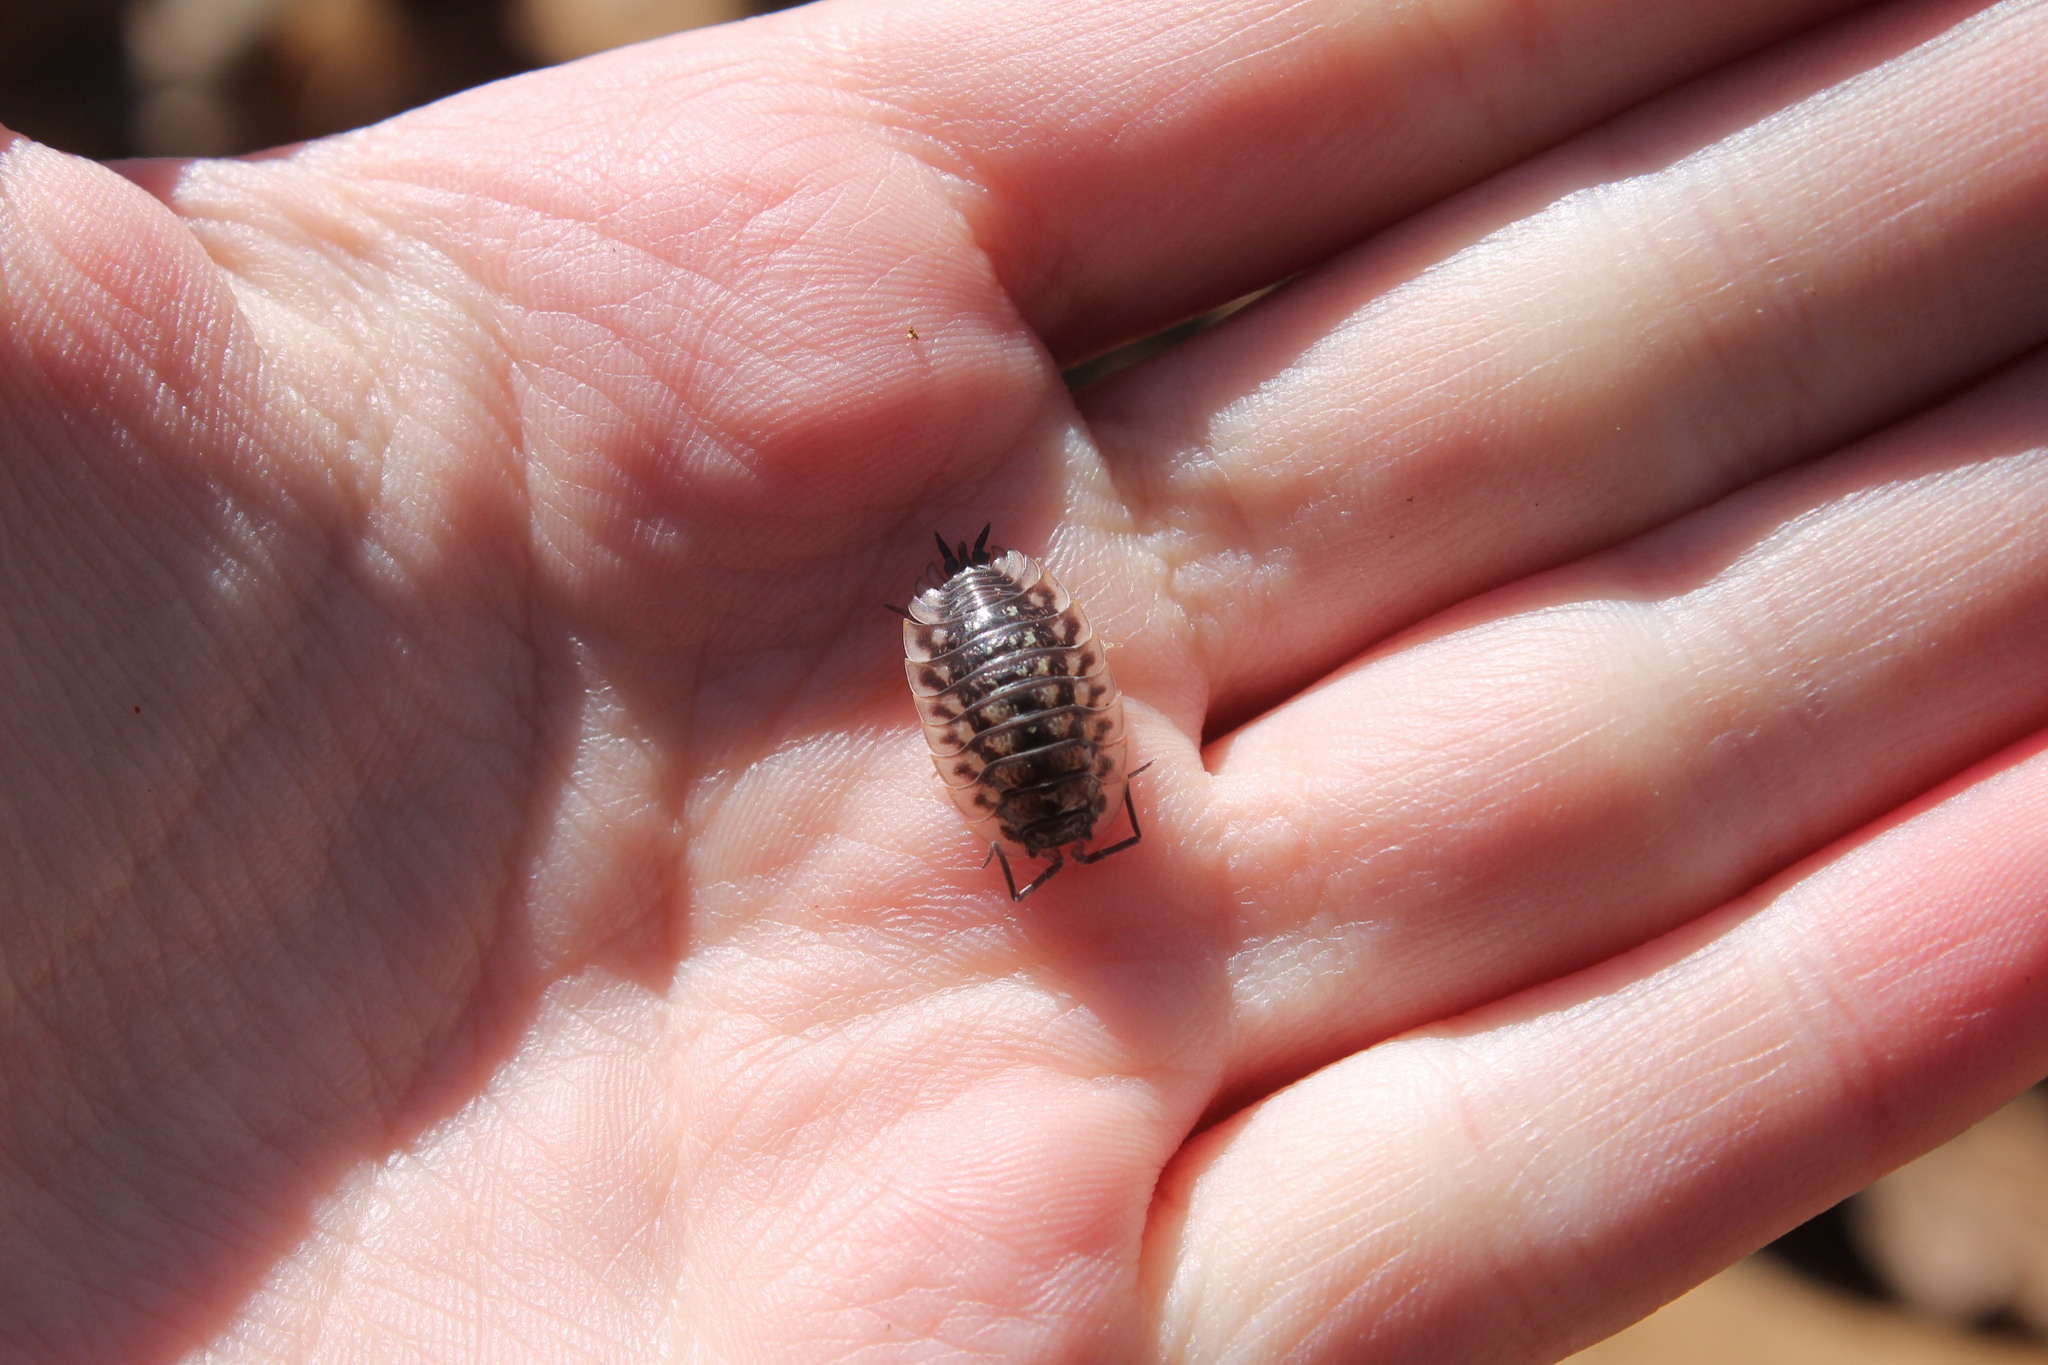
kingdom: Animalia
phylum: Arthropoda
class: Malacostraca
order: Isopoda
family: Oniscidae
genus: Oniscus
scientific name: Oniscus asellus
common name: Common shiny woodlouse
